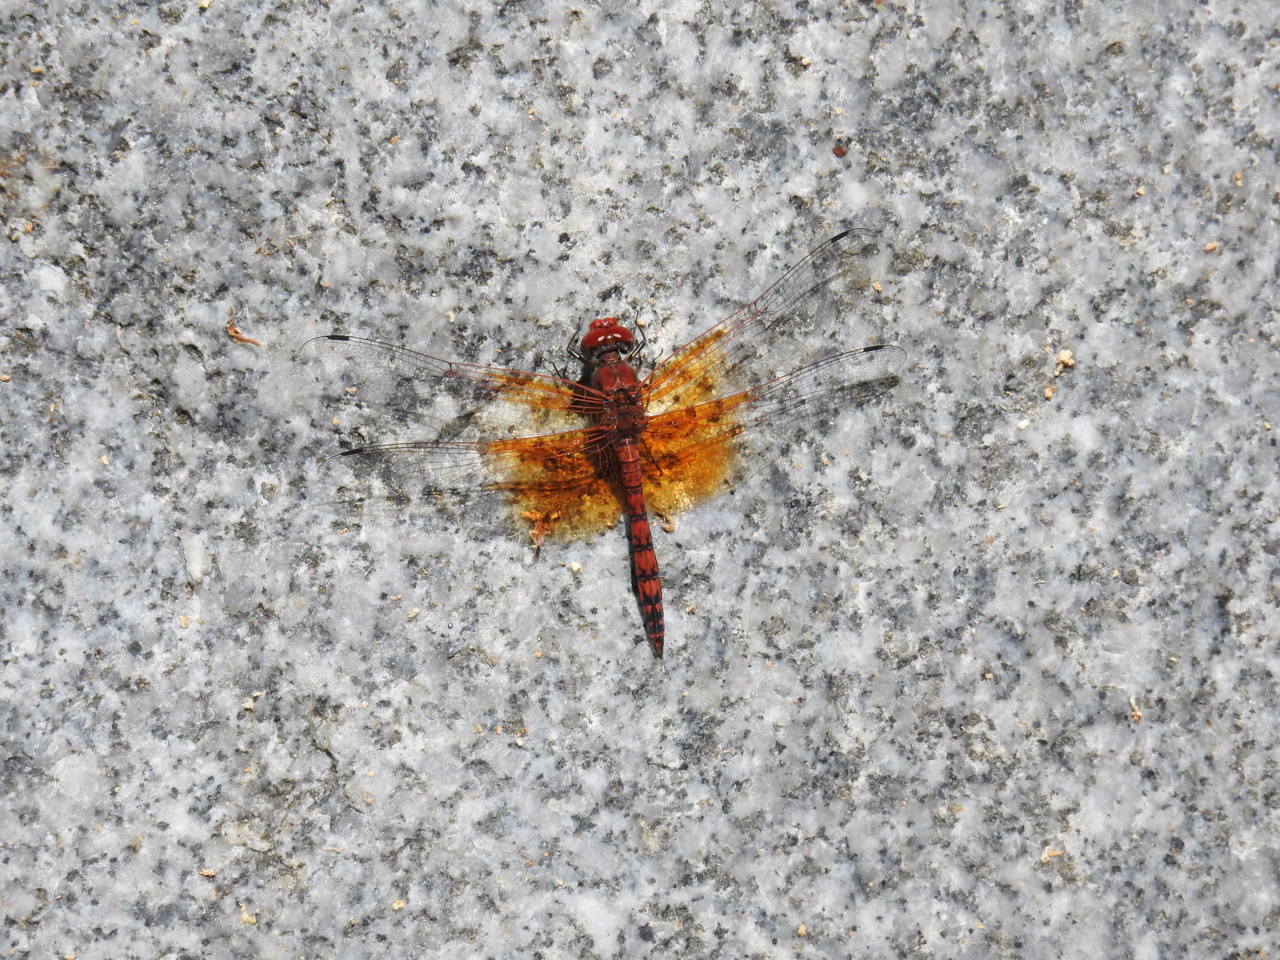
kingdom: Animalia
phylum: Arthropoda
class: Insecta
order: Odonata
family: Libellulidae
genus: Paltothemis
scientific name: Paltothemis lineatipes
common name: Red rock skimmer
